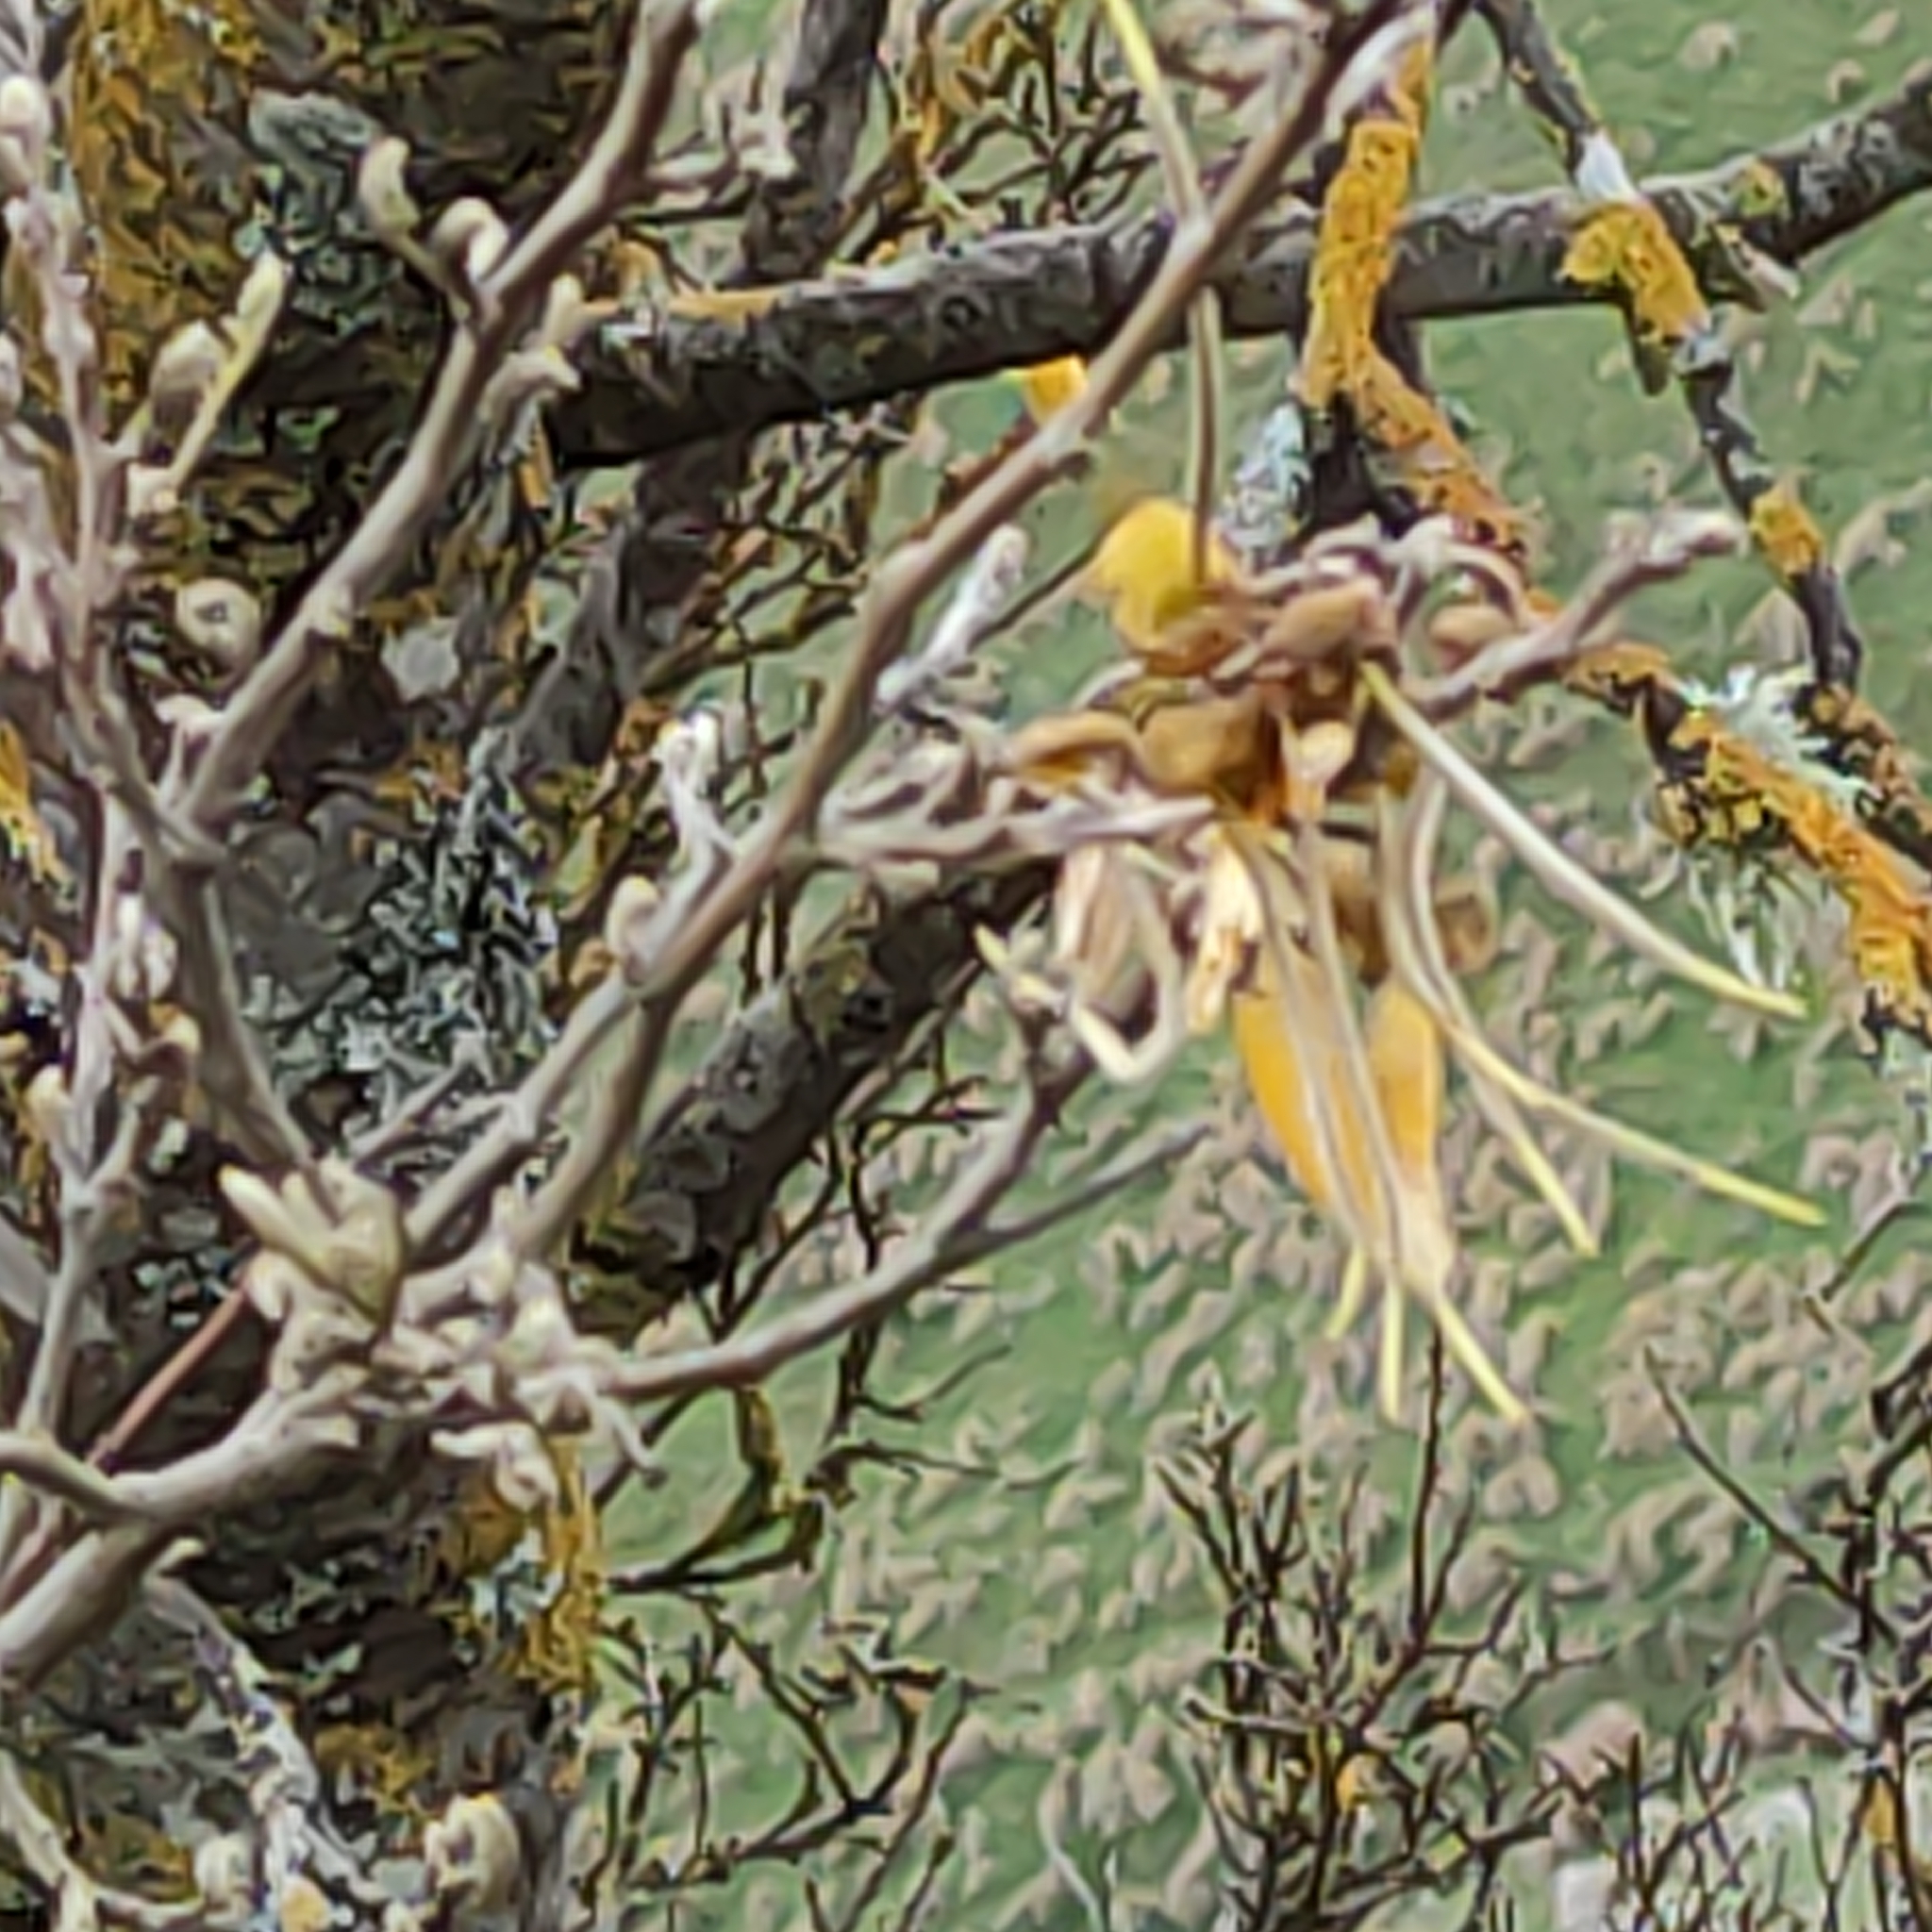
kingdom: Plantae
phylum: Tracheophyta
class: Magnoliopsida
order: Fabales
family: Fabaceae
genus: Sophora
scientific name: Sophora microphylla
